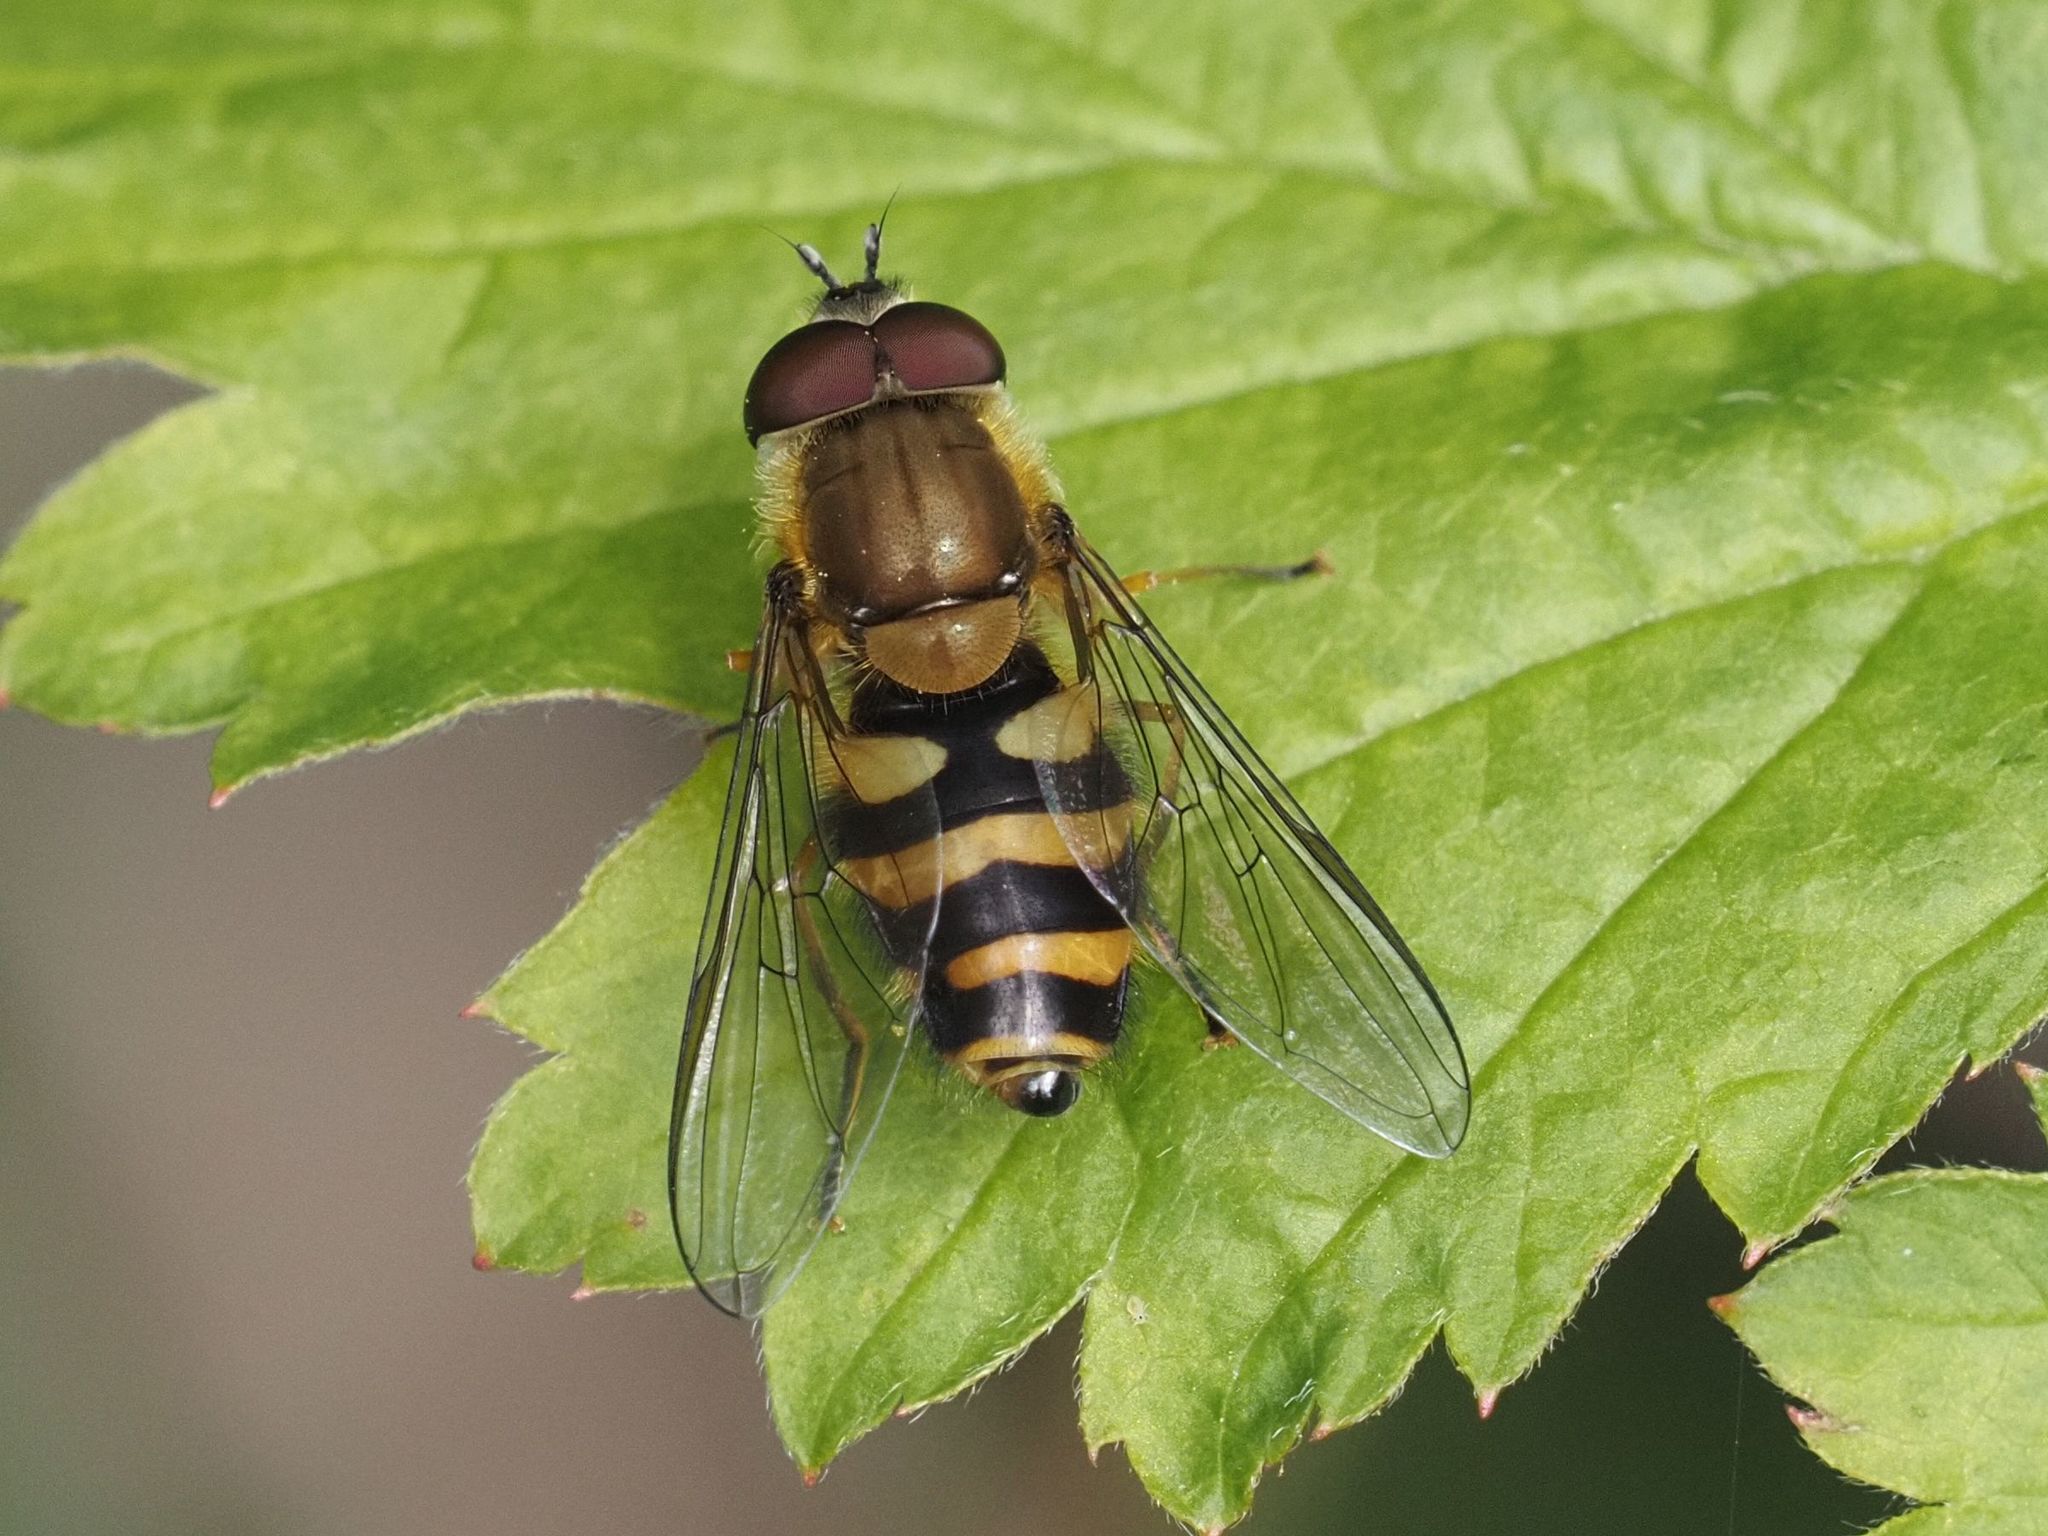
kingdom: Animalia
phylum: Arthropoda
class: Insecta
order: Diptera
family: Syrphidae
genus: Syrphus
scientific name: Syrphus
